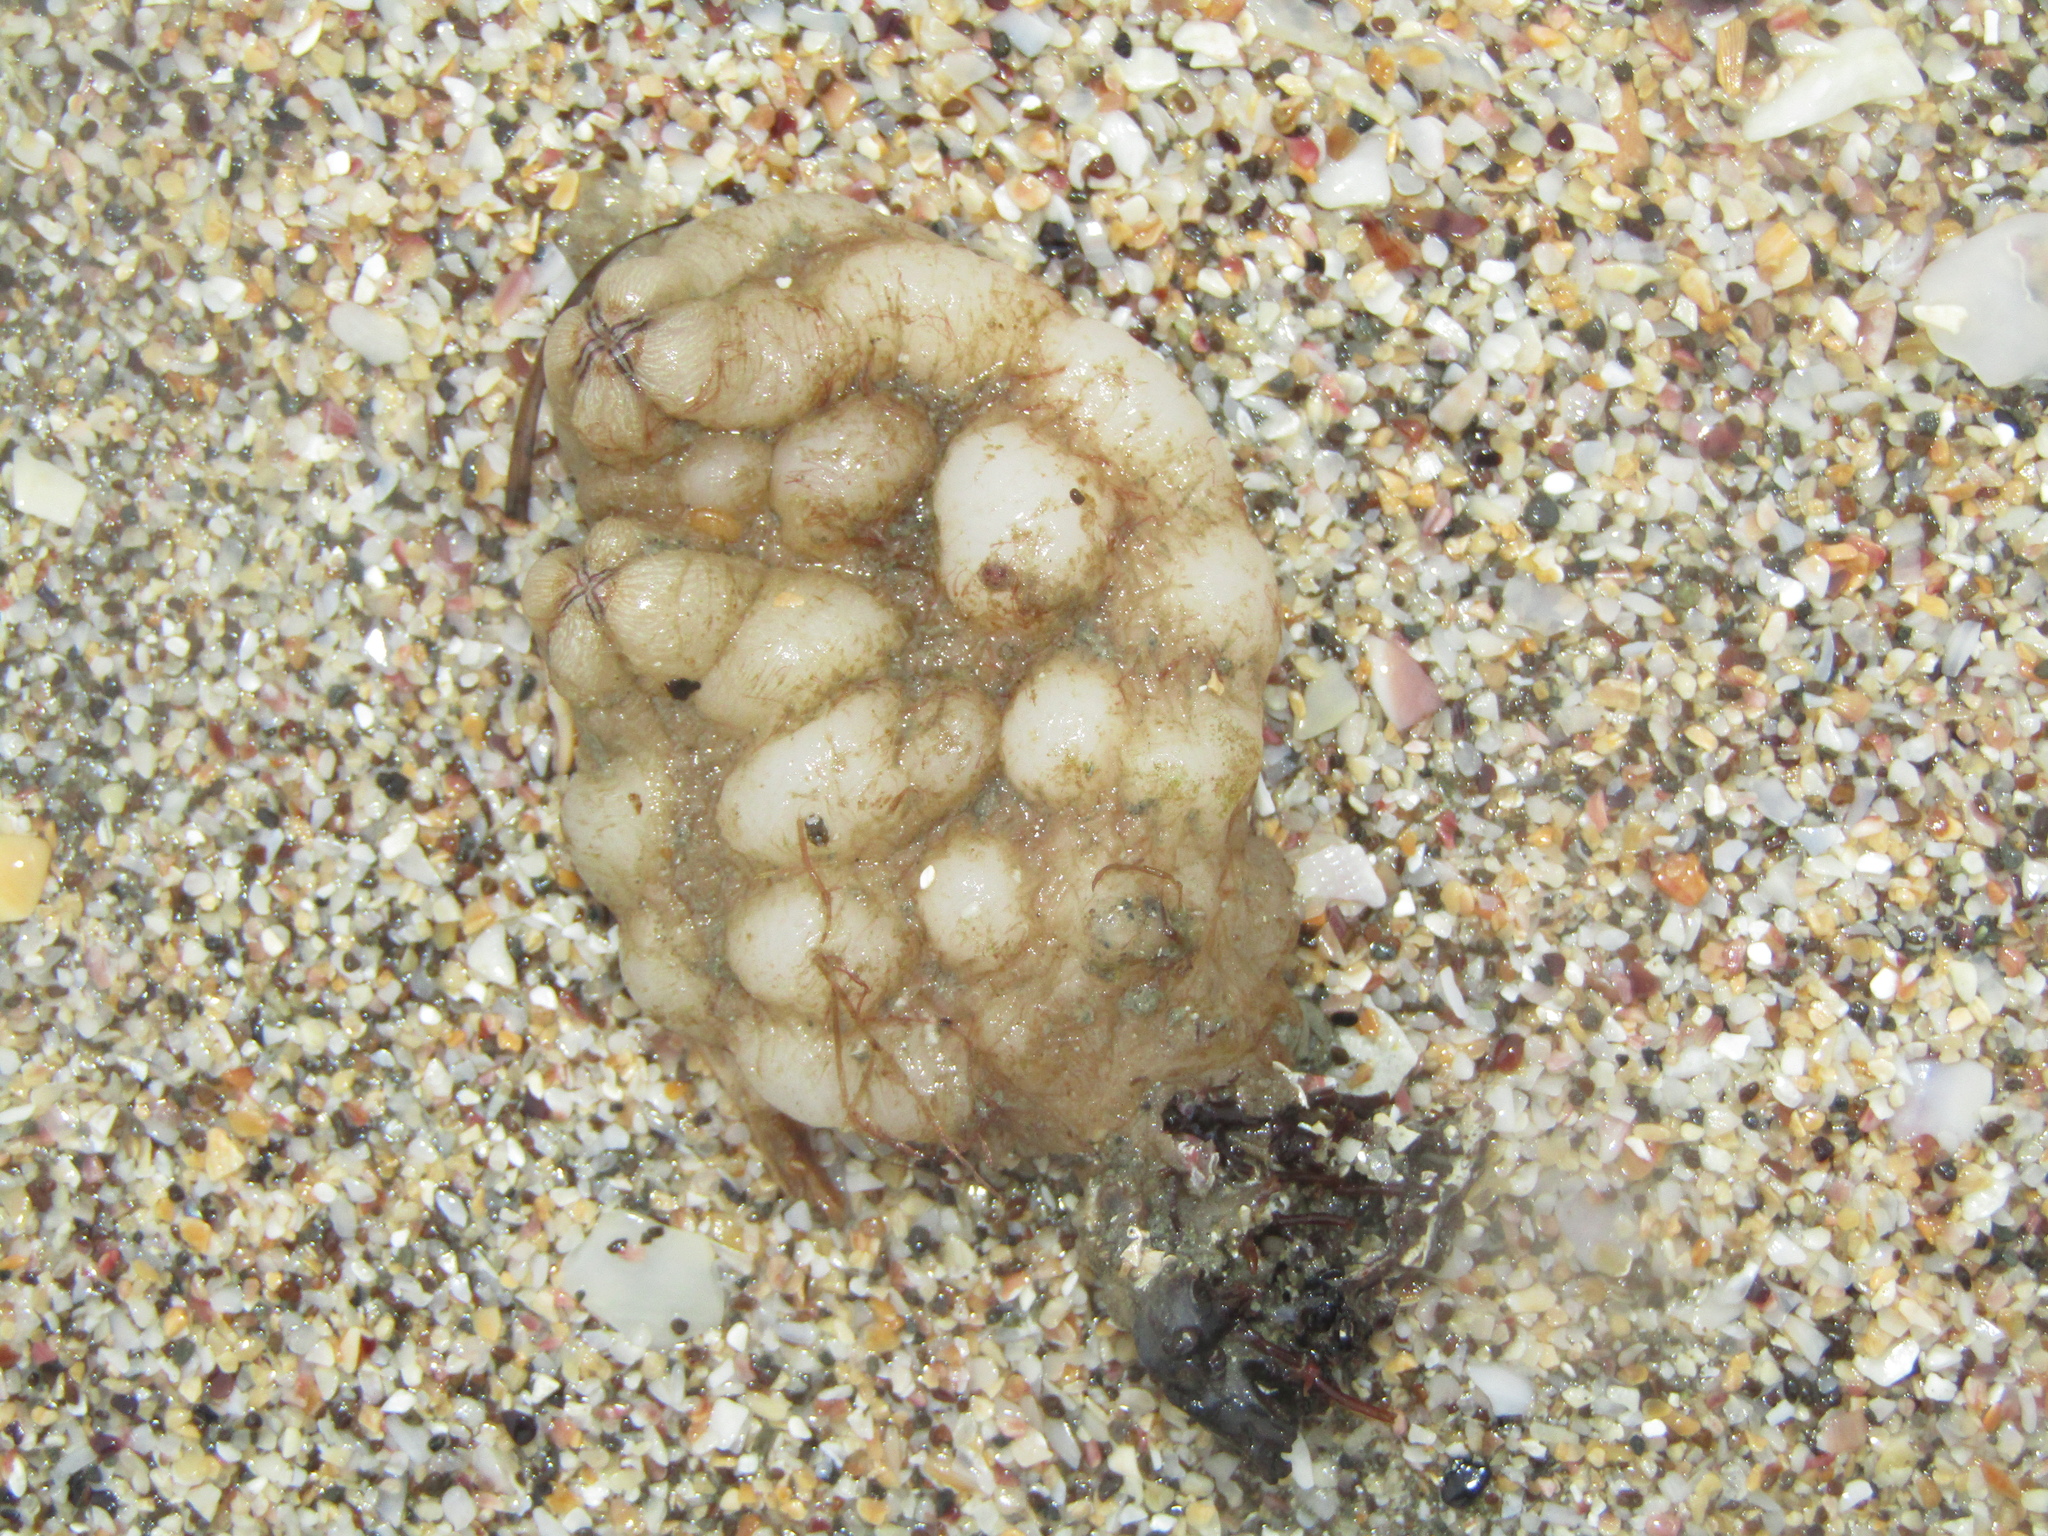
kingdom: Animalia
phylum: Chordata
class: Ascidiacea
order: Stolidobranchia
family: Styelidae
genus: Styela
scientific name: Styela plicata
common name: Pleated tunicate
